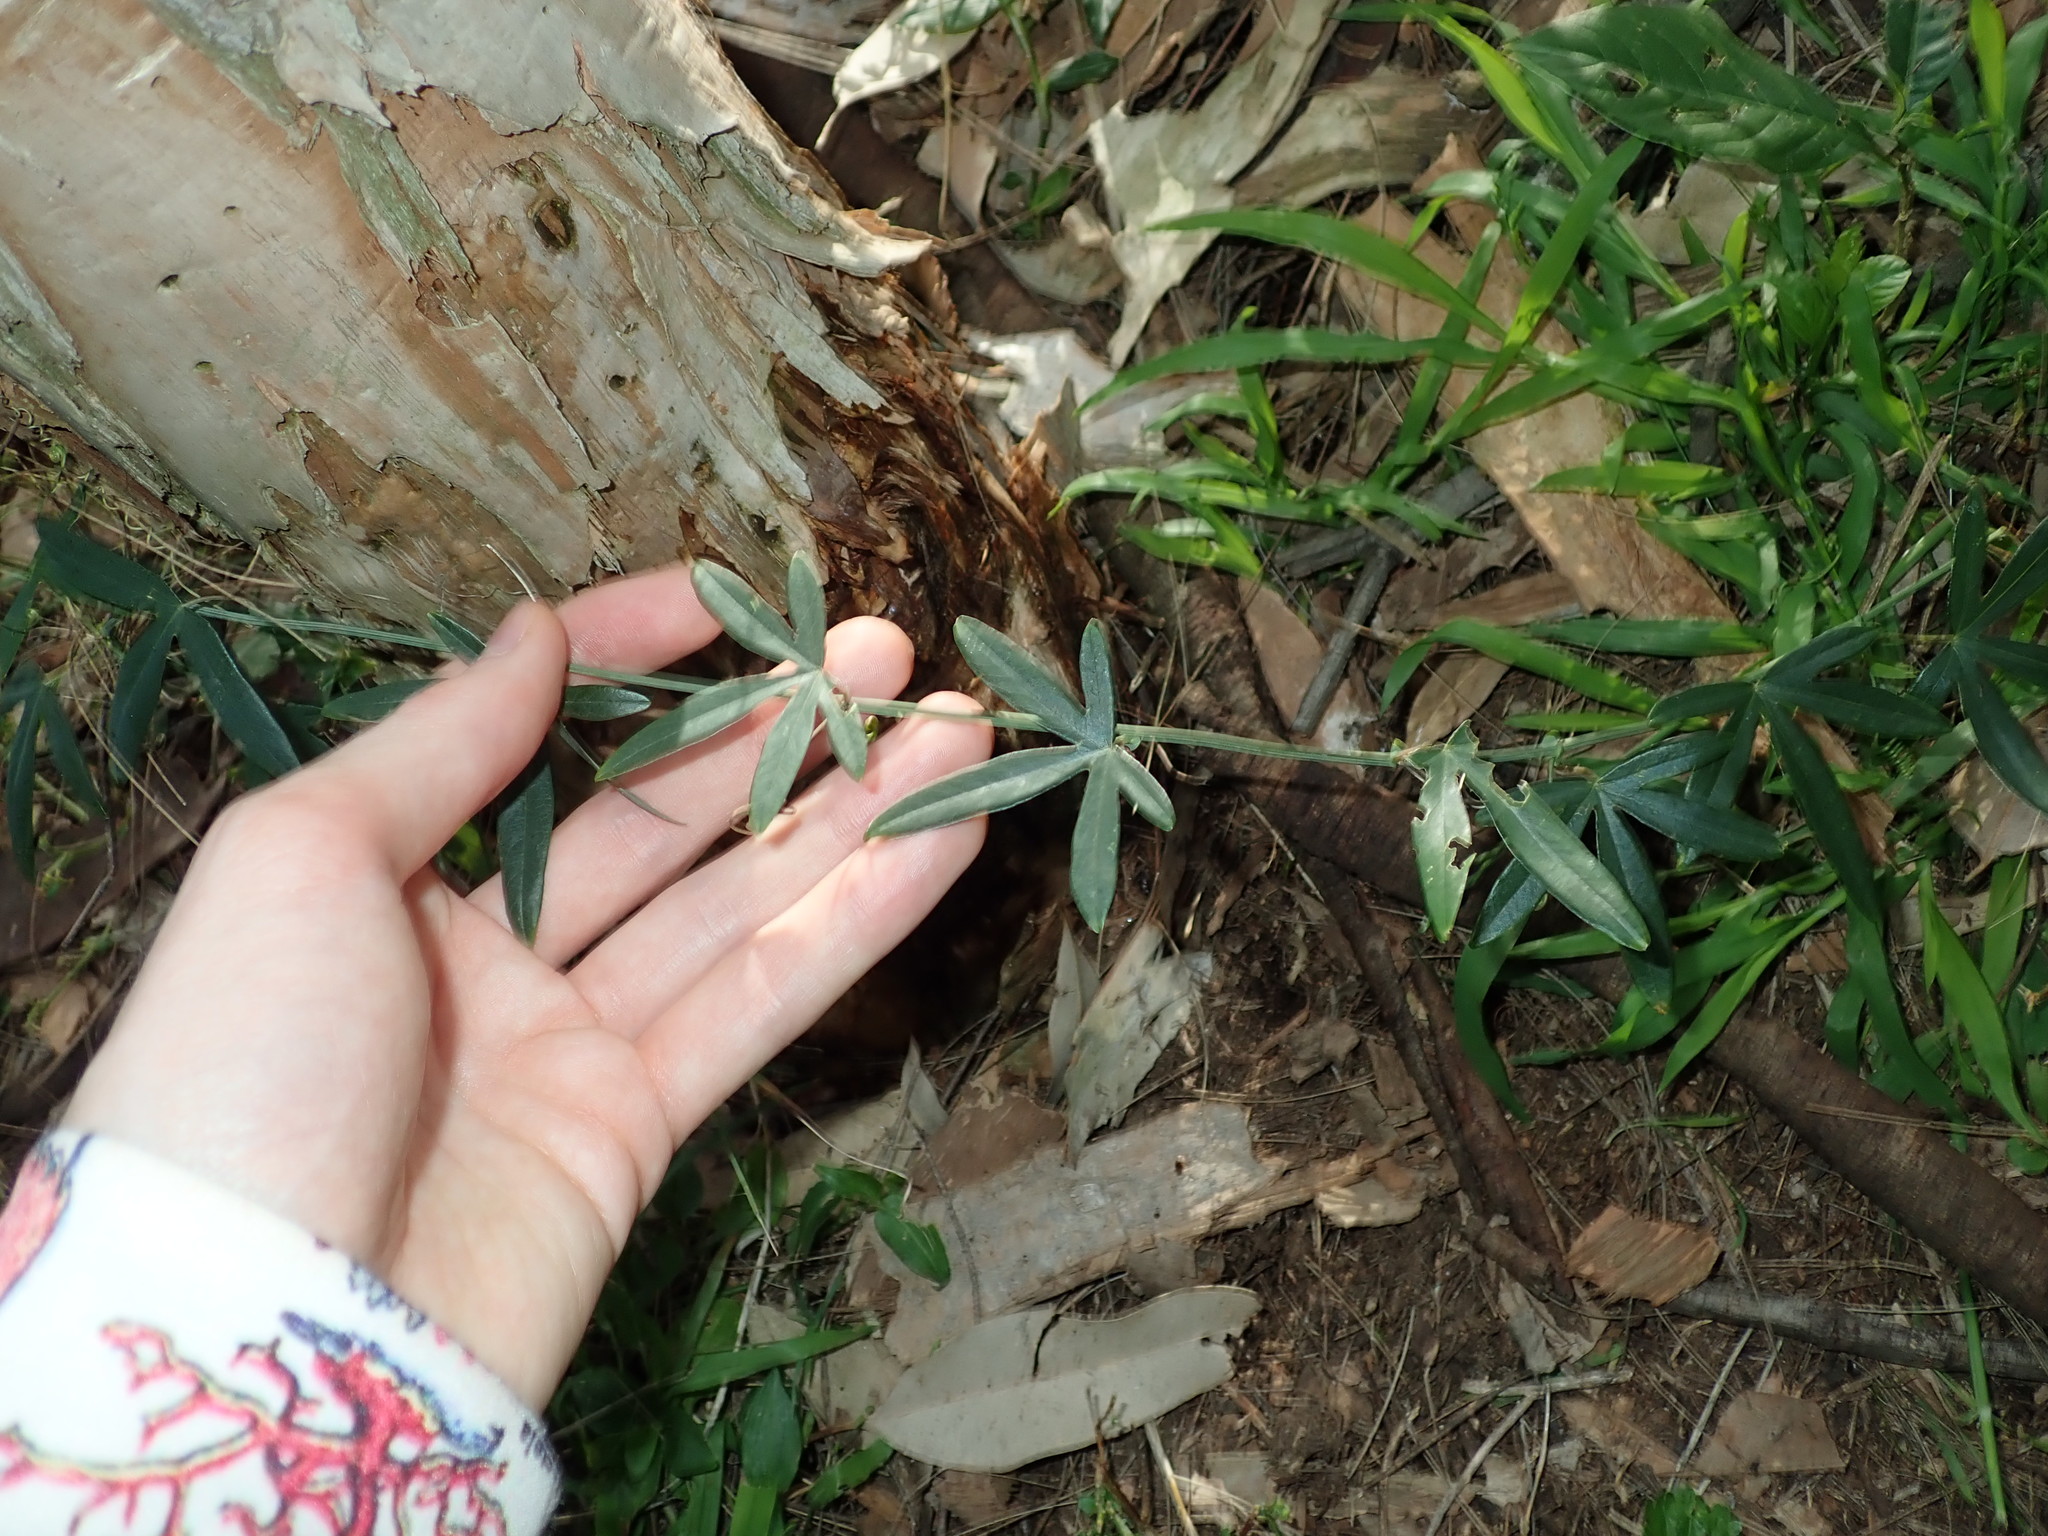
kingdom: Plantae
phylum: Tracheophyta
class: Magnoliopsida
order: Malpighiales
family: Passifloraceae
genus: Passiflora
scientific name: Passiflora caerulea
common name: Blue passionflower
